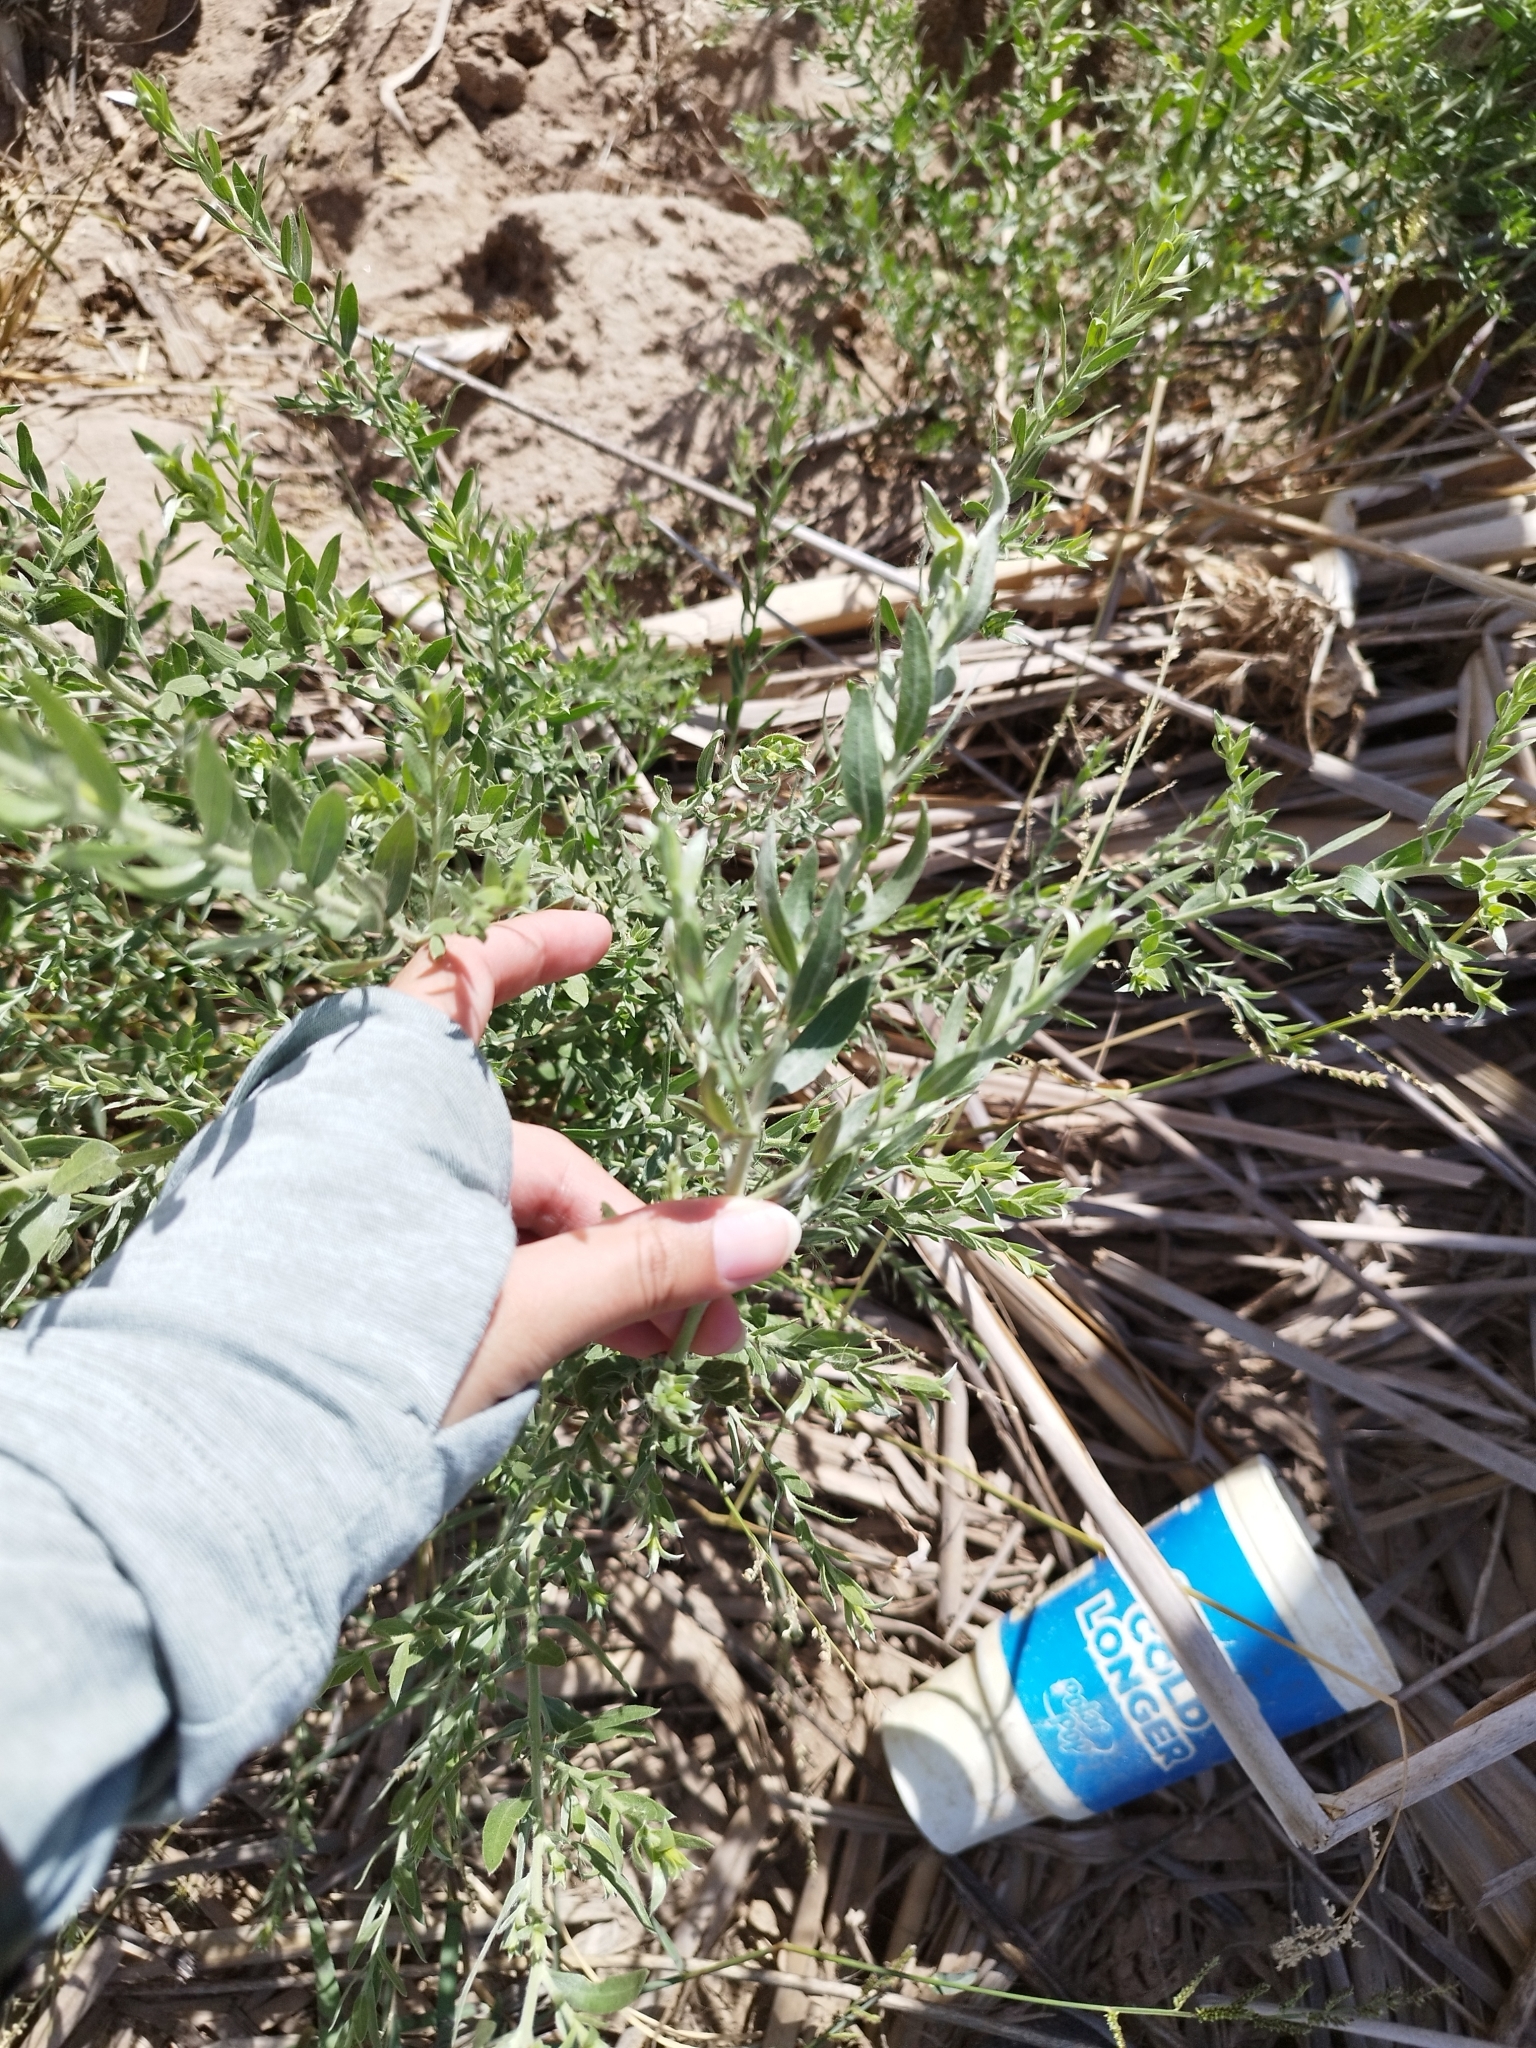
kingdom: Plantae
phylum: Tracheophyta
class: Magnoliopsida
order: Asterales
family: Asteraceae
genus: Pluchea
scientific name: Pluchea sericea
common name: Arrow-weed
